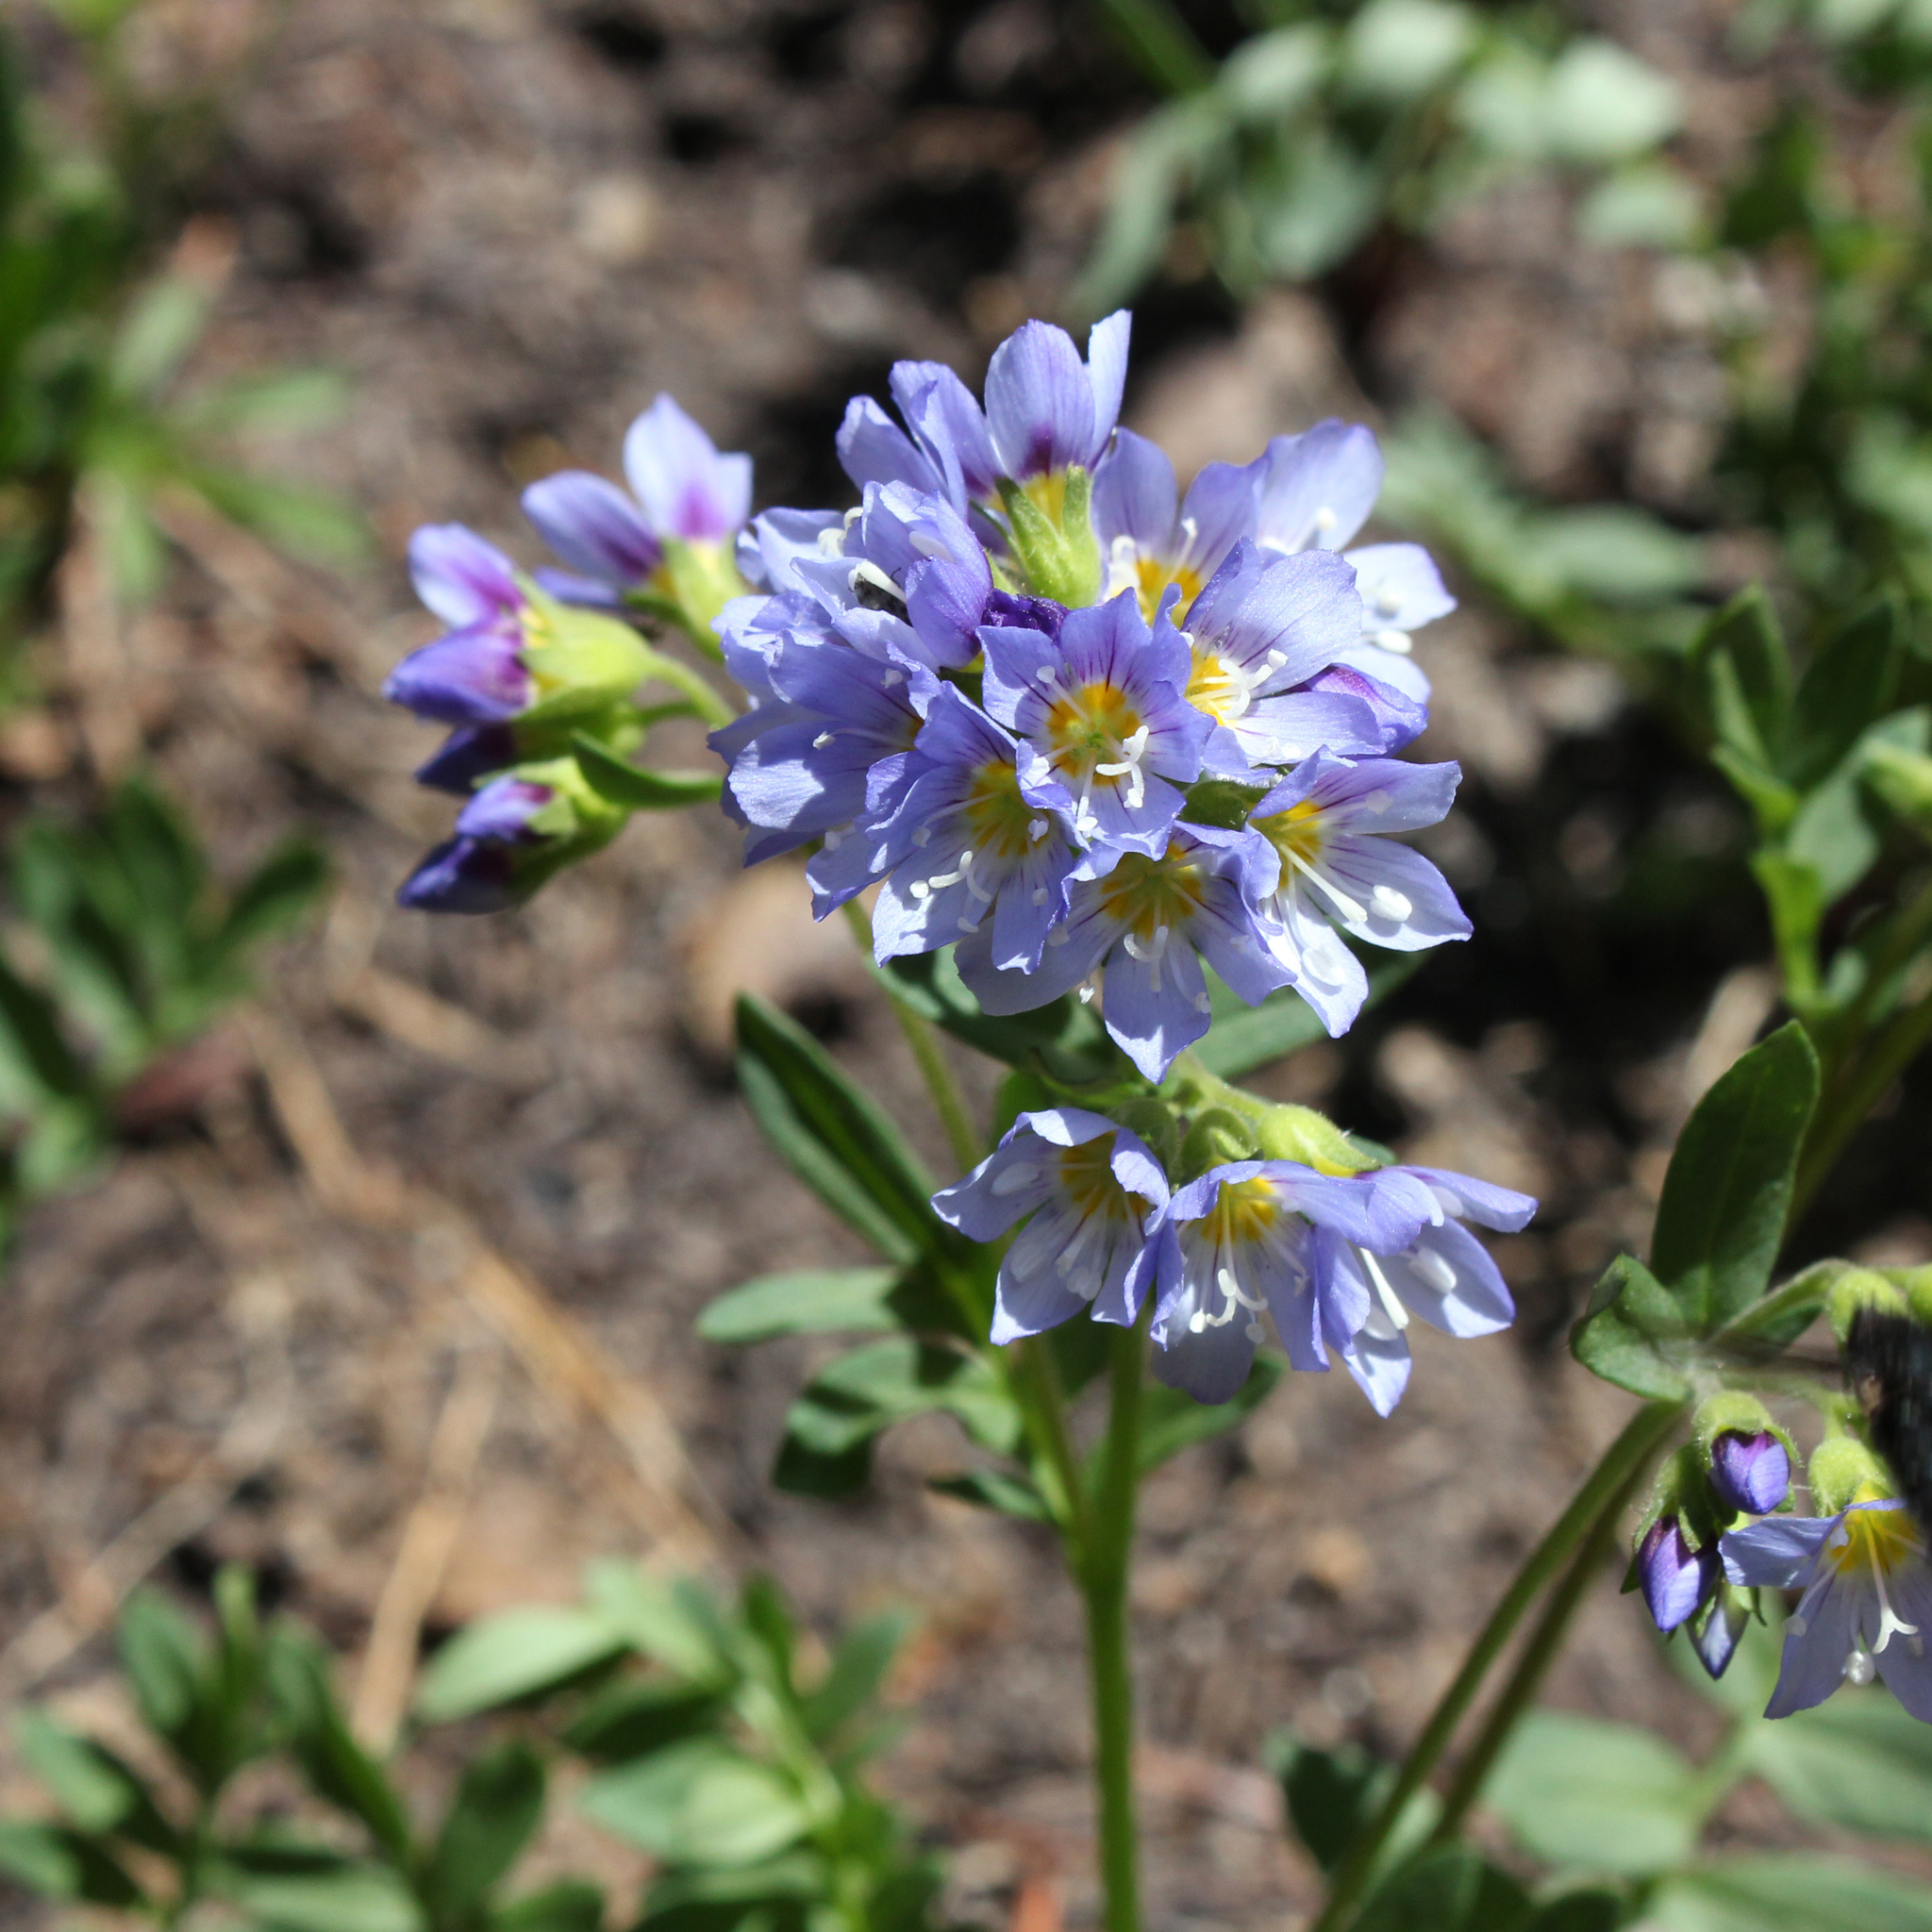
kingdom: Plantae
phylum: Tracheophyta
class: Magnoliopsida
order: Ericales
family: Polemoniaceae
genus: Polemonium
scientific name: Polemonium californicum
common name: California jacob's ladder
